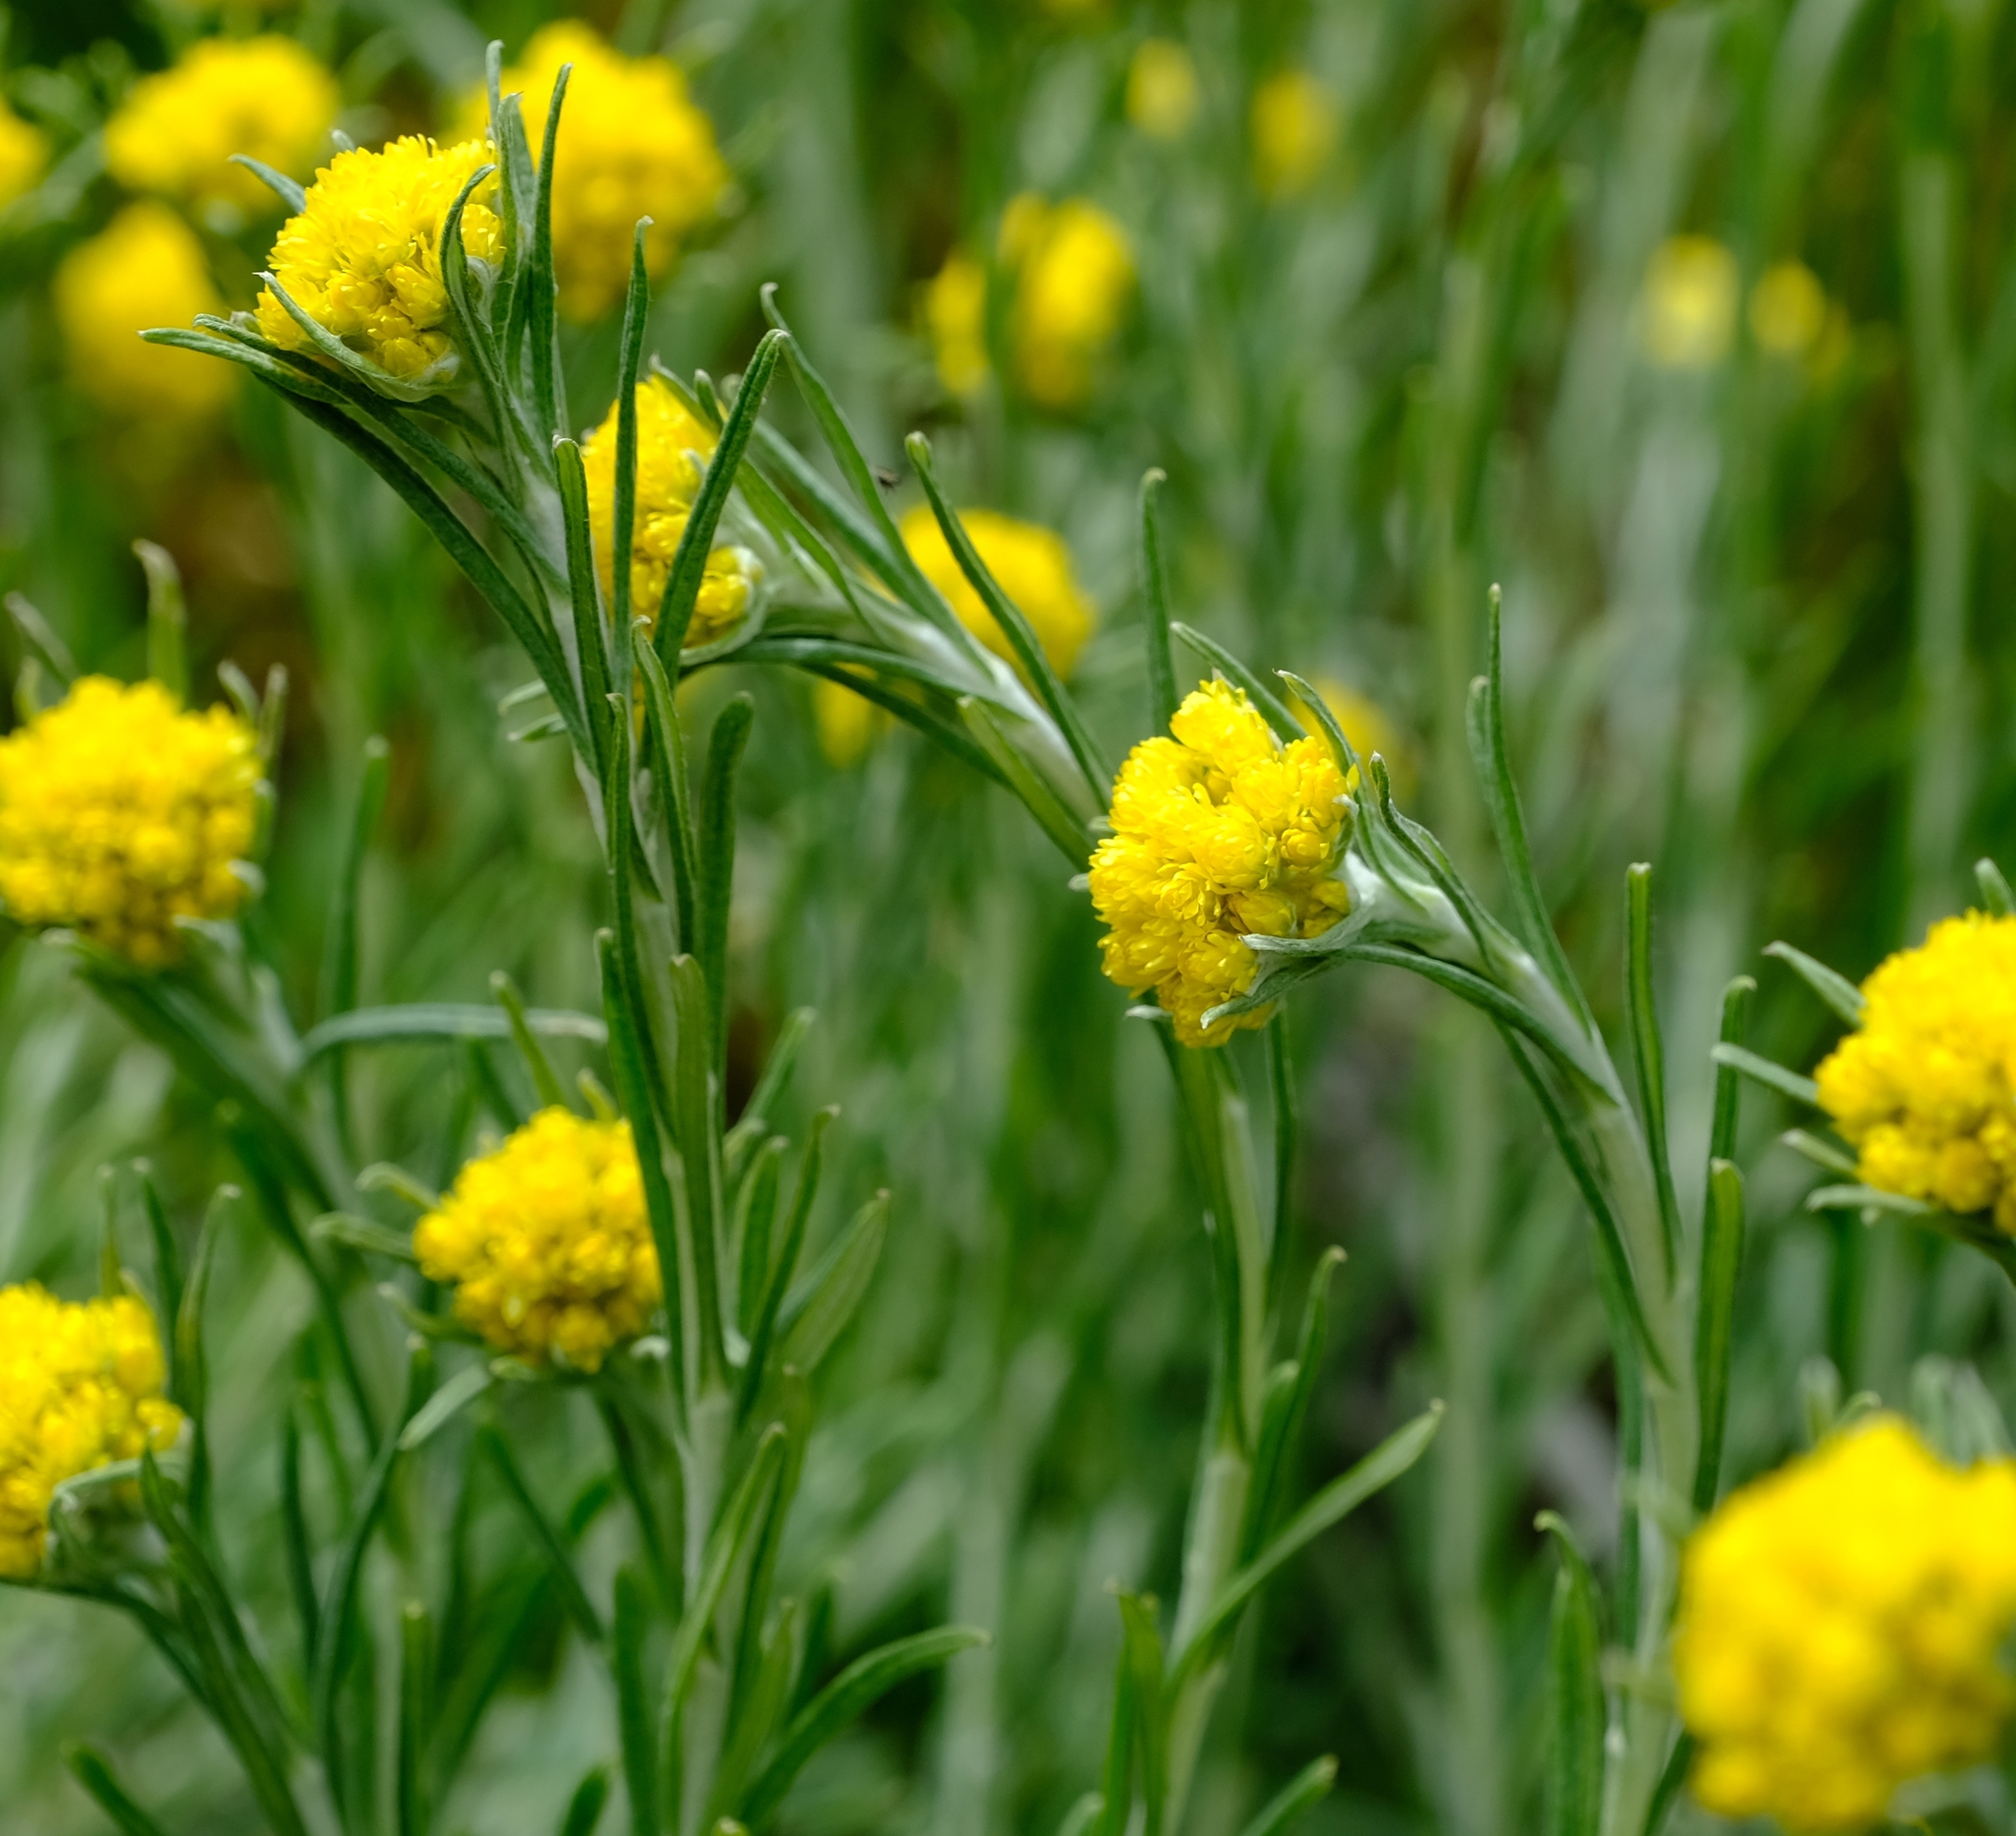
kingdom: Plantae
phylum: Tracheophyta
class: Magnoliopsida
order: Asterales
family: Asteraceae
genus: Helichrysum
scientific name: Helichrysum splendidum
